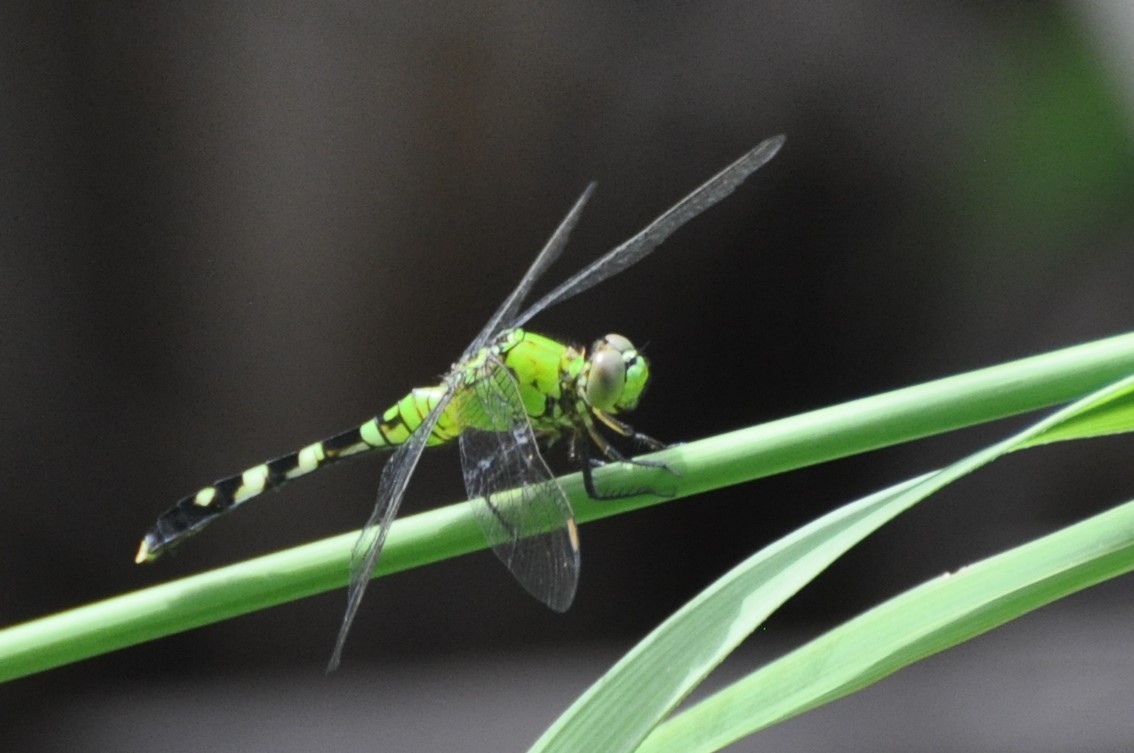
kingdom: Animalia
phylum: Arthropoda
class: Insecta
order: Odonata
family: Libellulidae
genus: Erythemis
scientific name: Erythemis simplicicollis
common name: Eastern pondhawk
